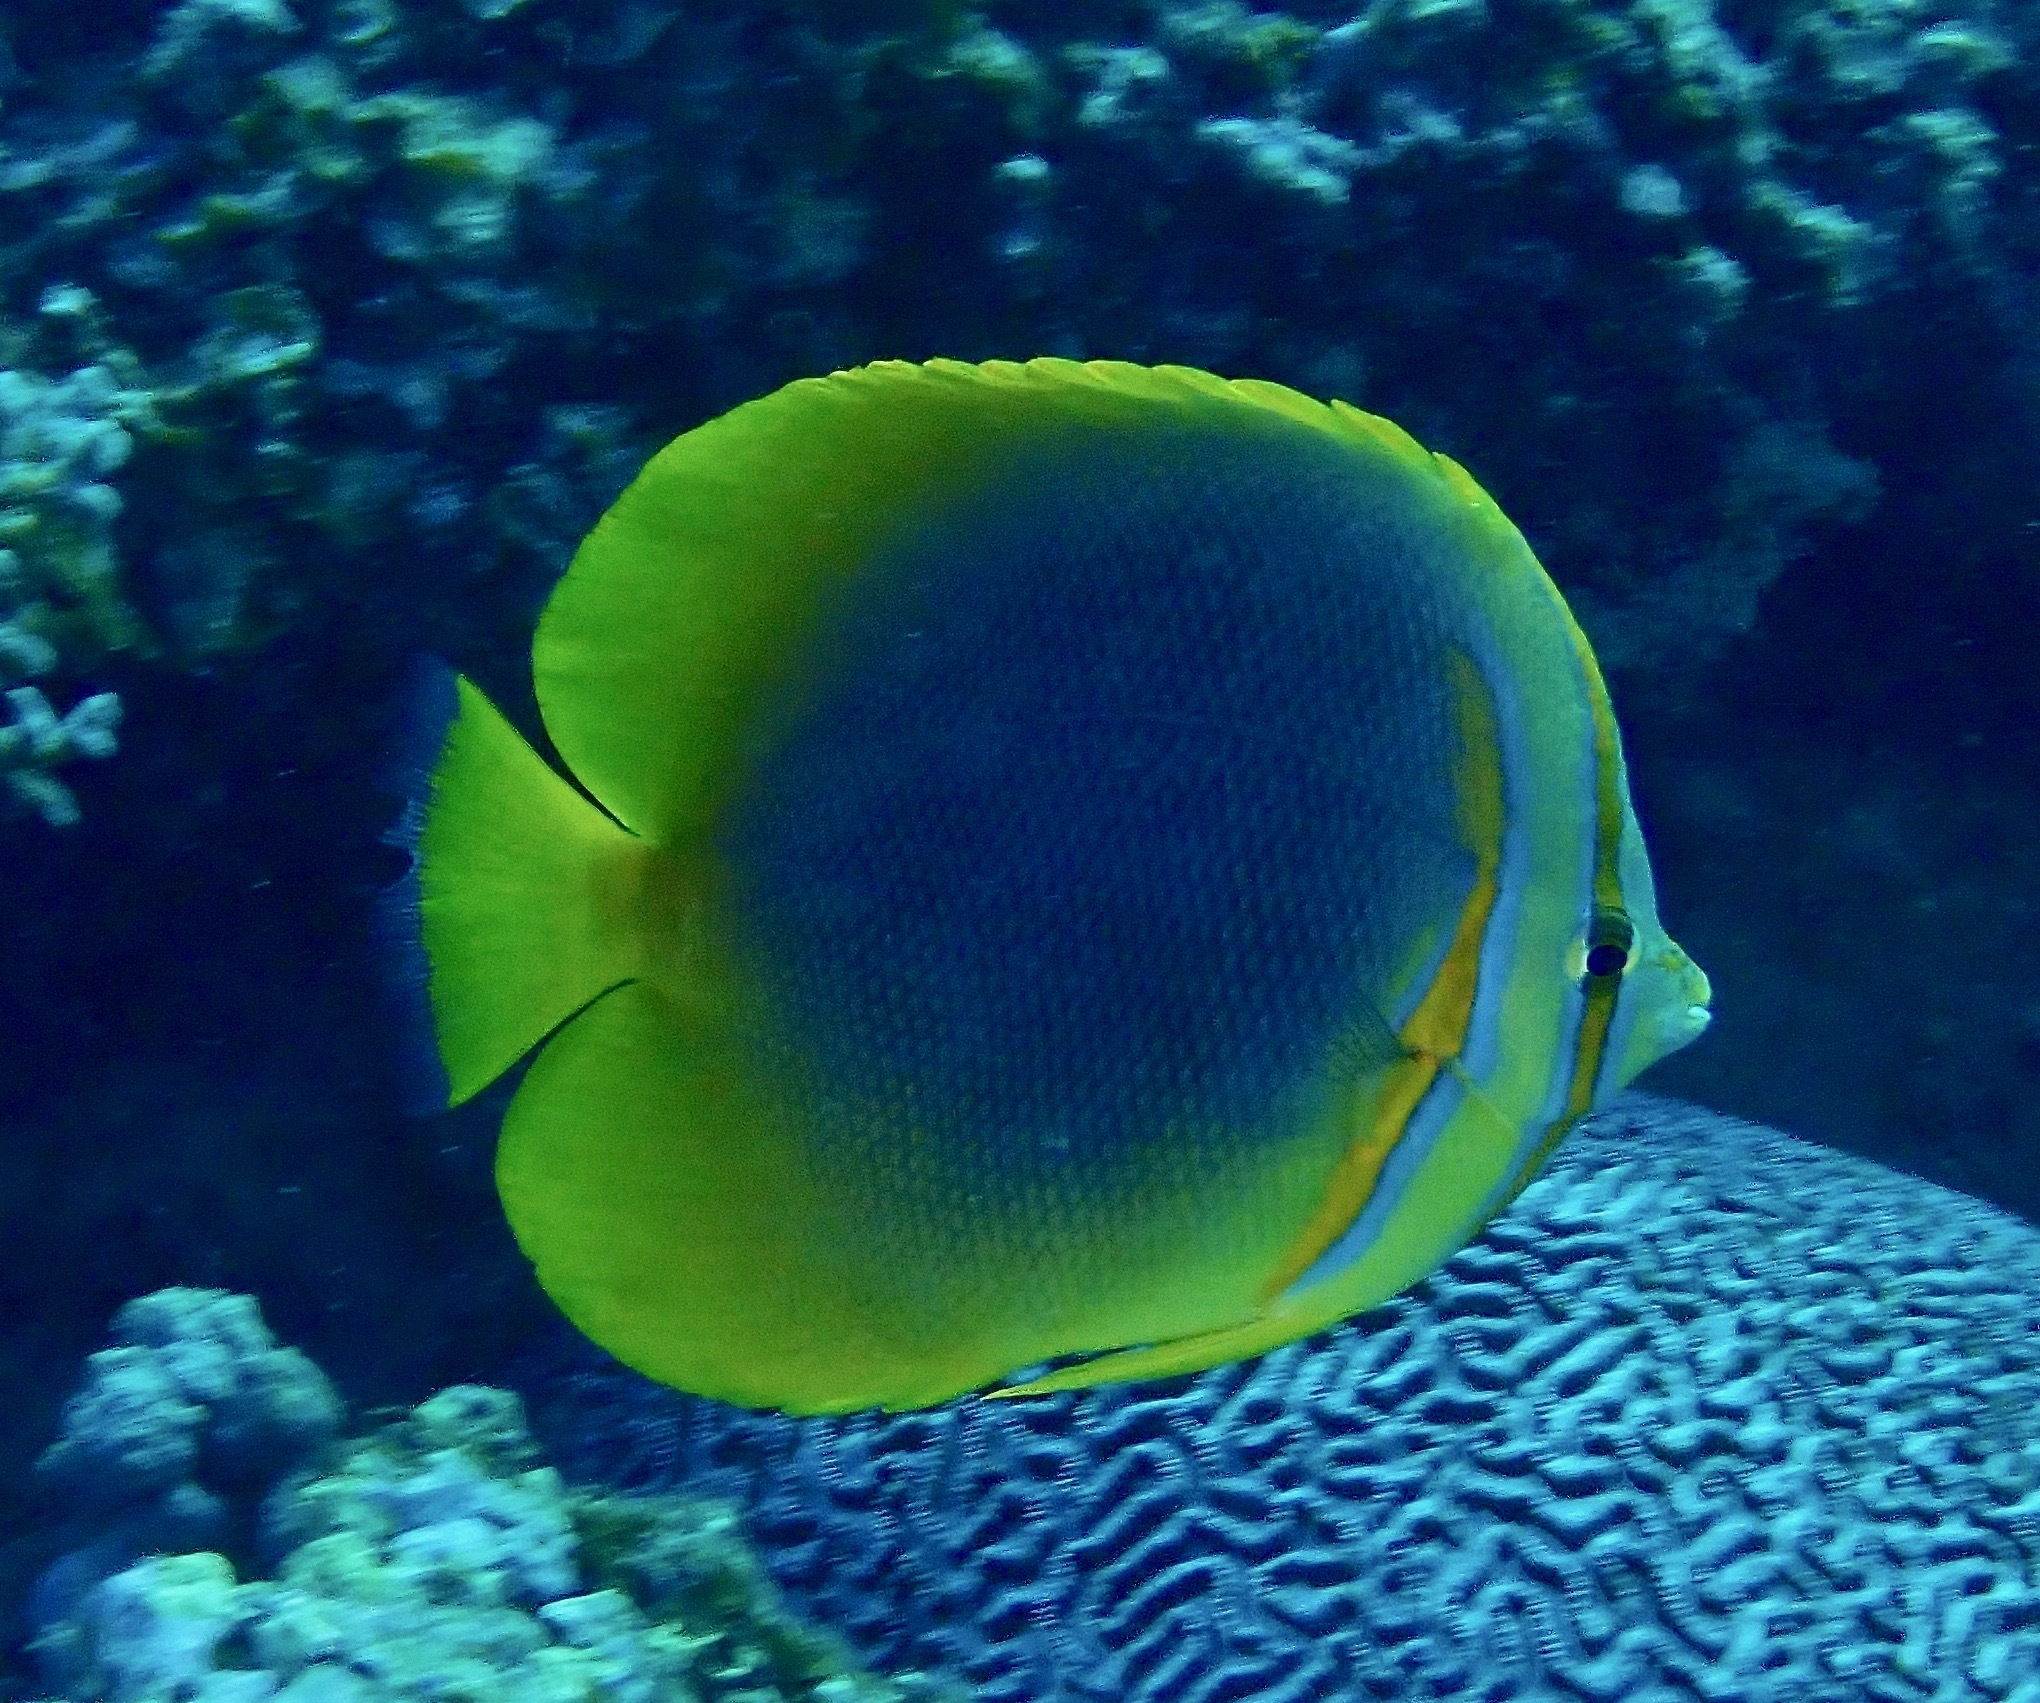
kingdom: Animalia
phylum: Chordata
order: Perciformes
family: Chaetodontidae
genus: Chaetodon
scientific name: Chaetodon aureofasciatus
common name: Golden butterflyfish
